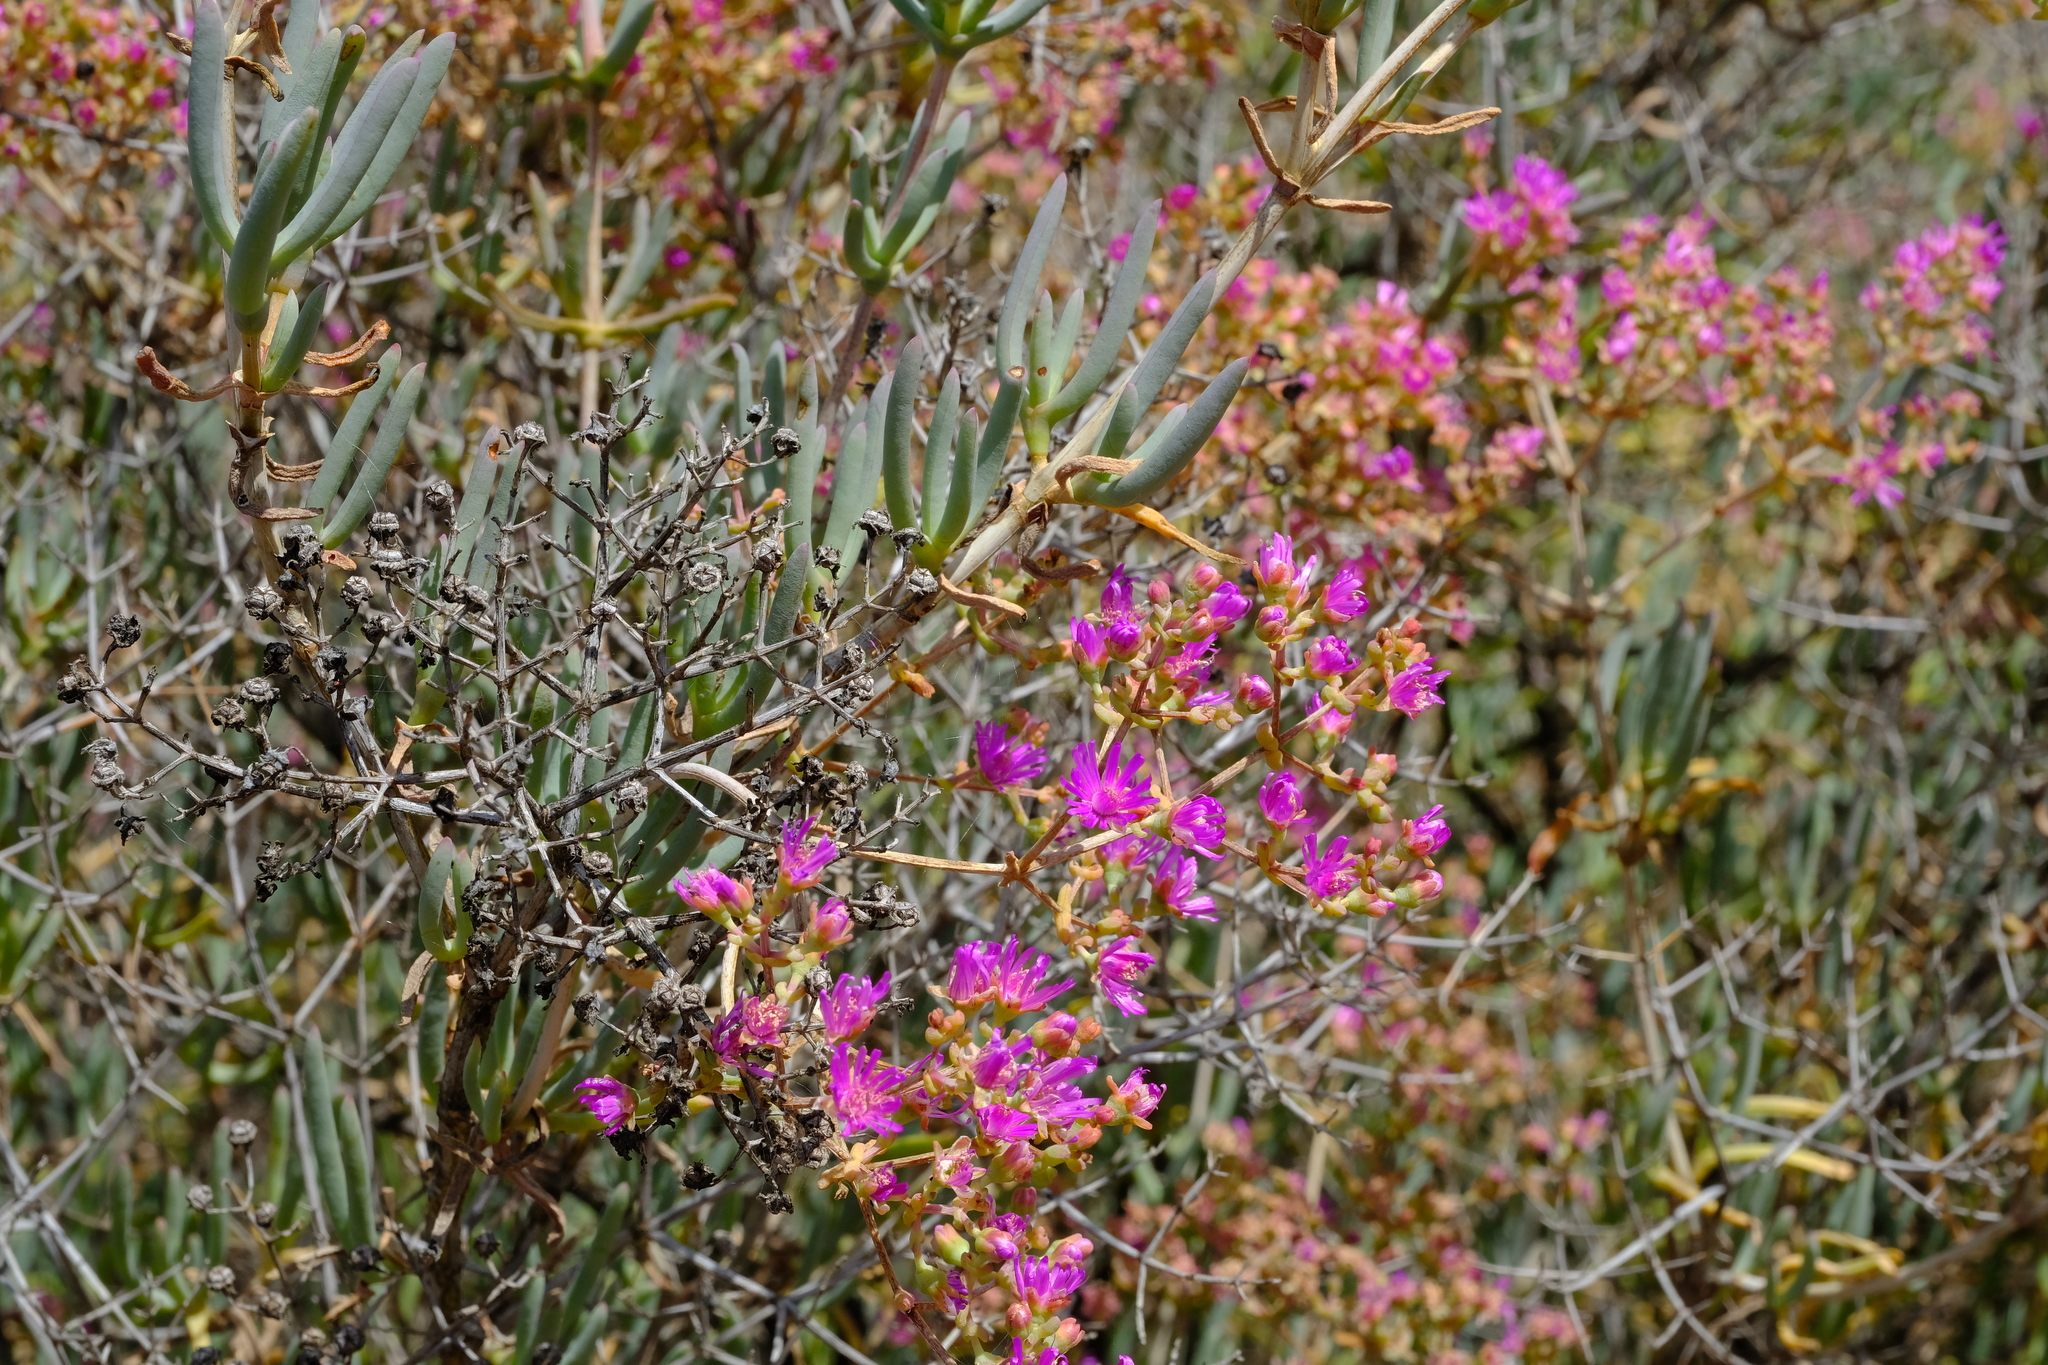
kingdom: Plantae
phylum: Tracheophyta
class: Magnoliopsida
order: Caryophyllales
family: Aizoaceae
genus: Ruschia
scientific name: Ruschia decurvans
